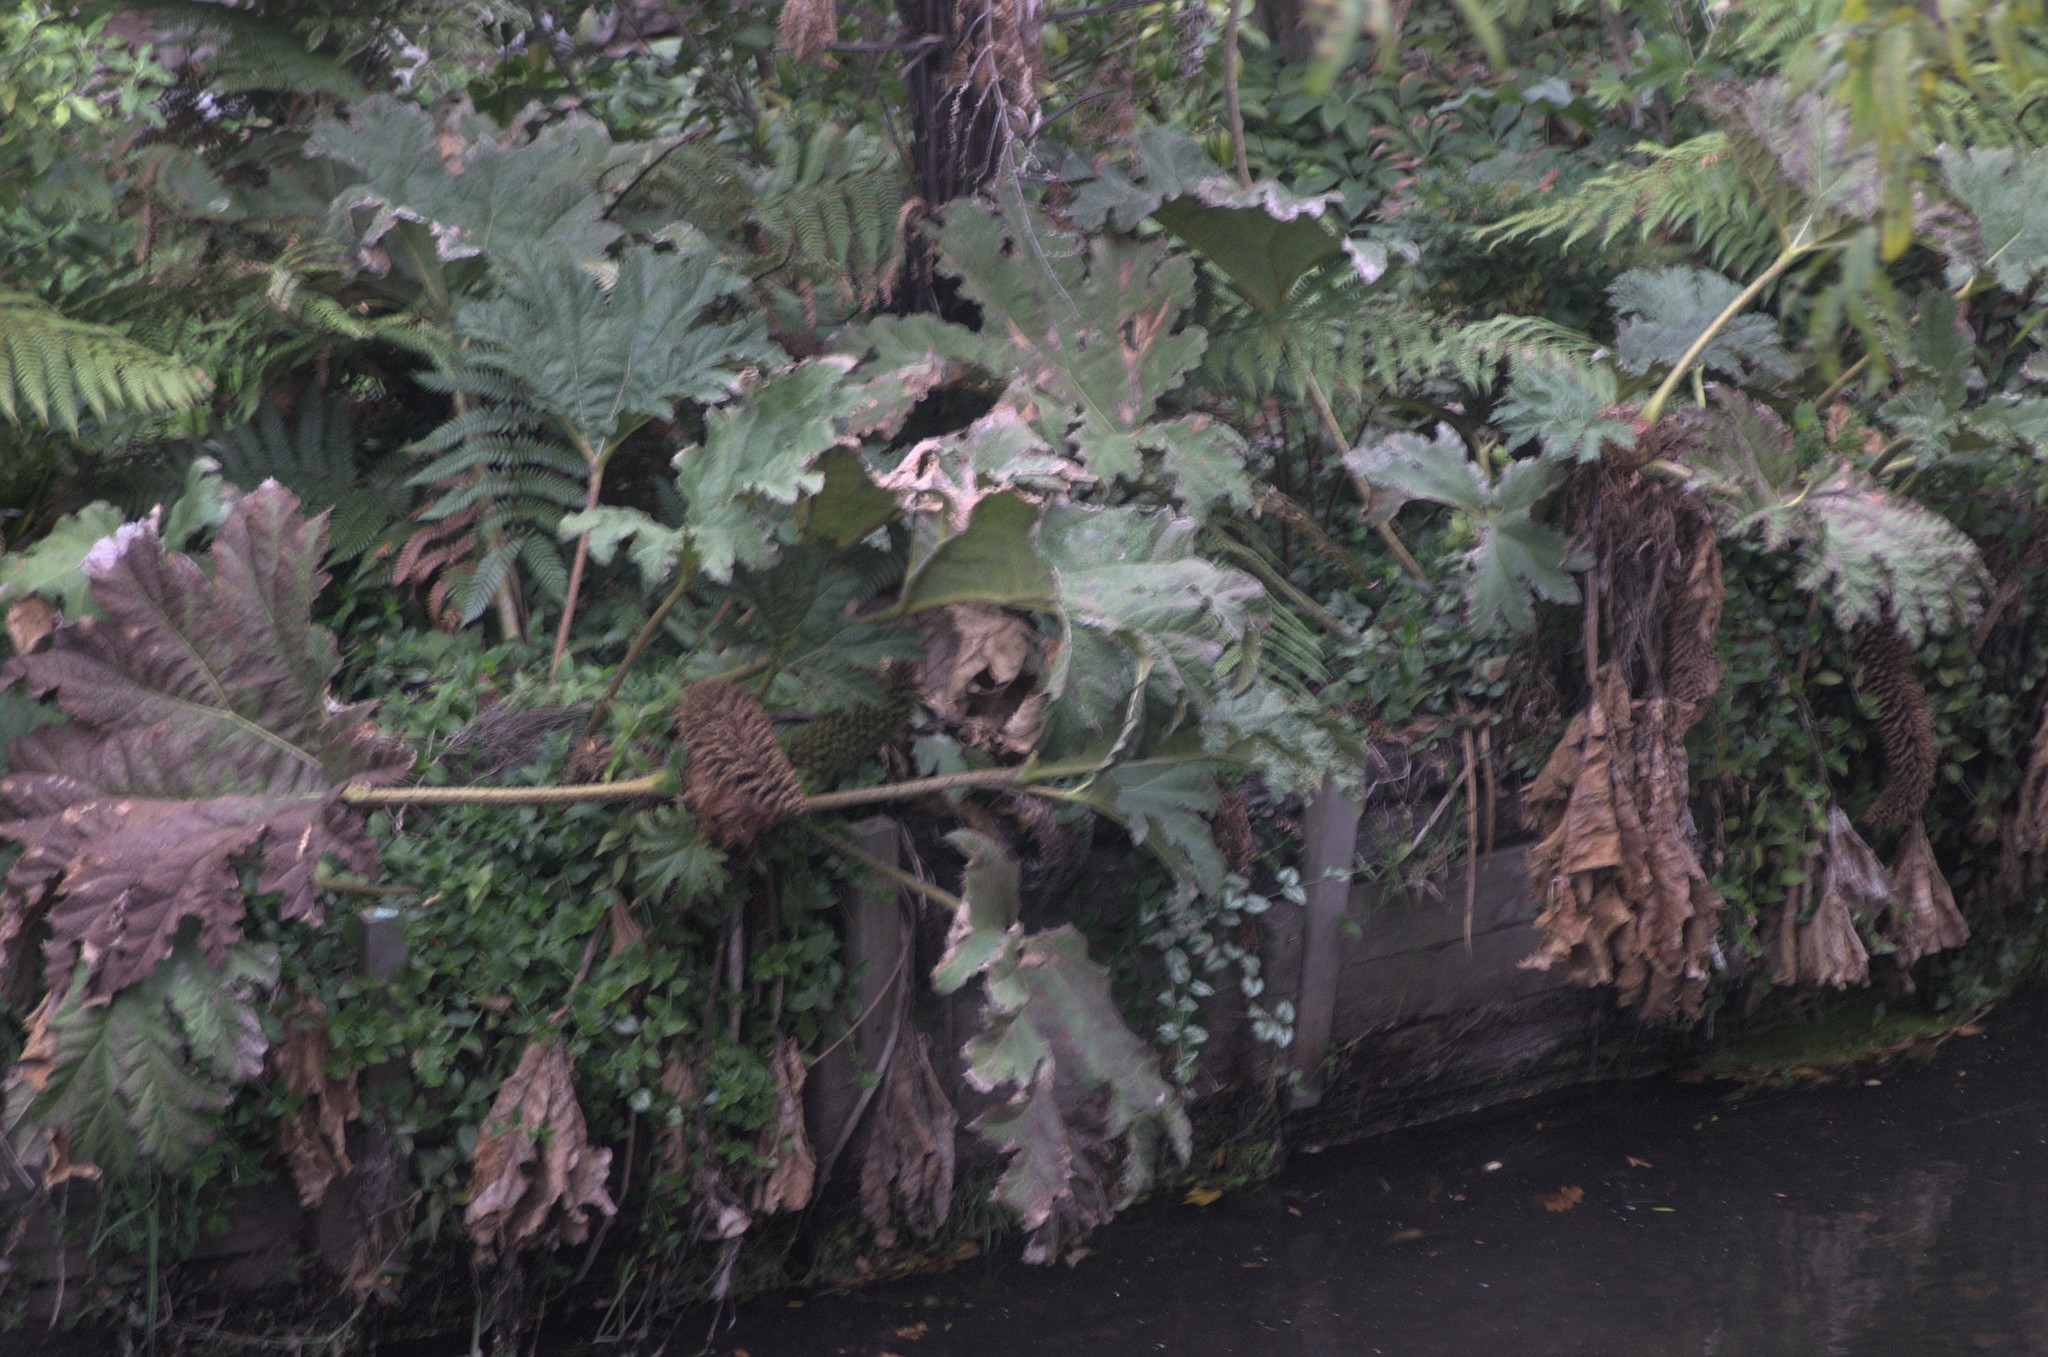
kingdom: Plantae
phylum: Tracheophyta
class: Magnoliopsida
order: Gunnerales
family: Gunneraceae
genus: Gunnera
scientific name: Gunnera tinctoria
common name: Giant-rhubarb
